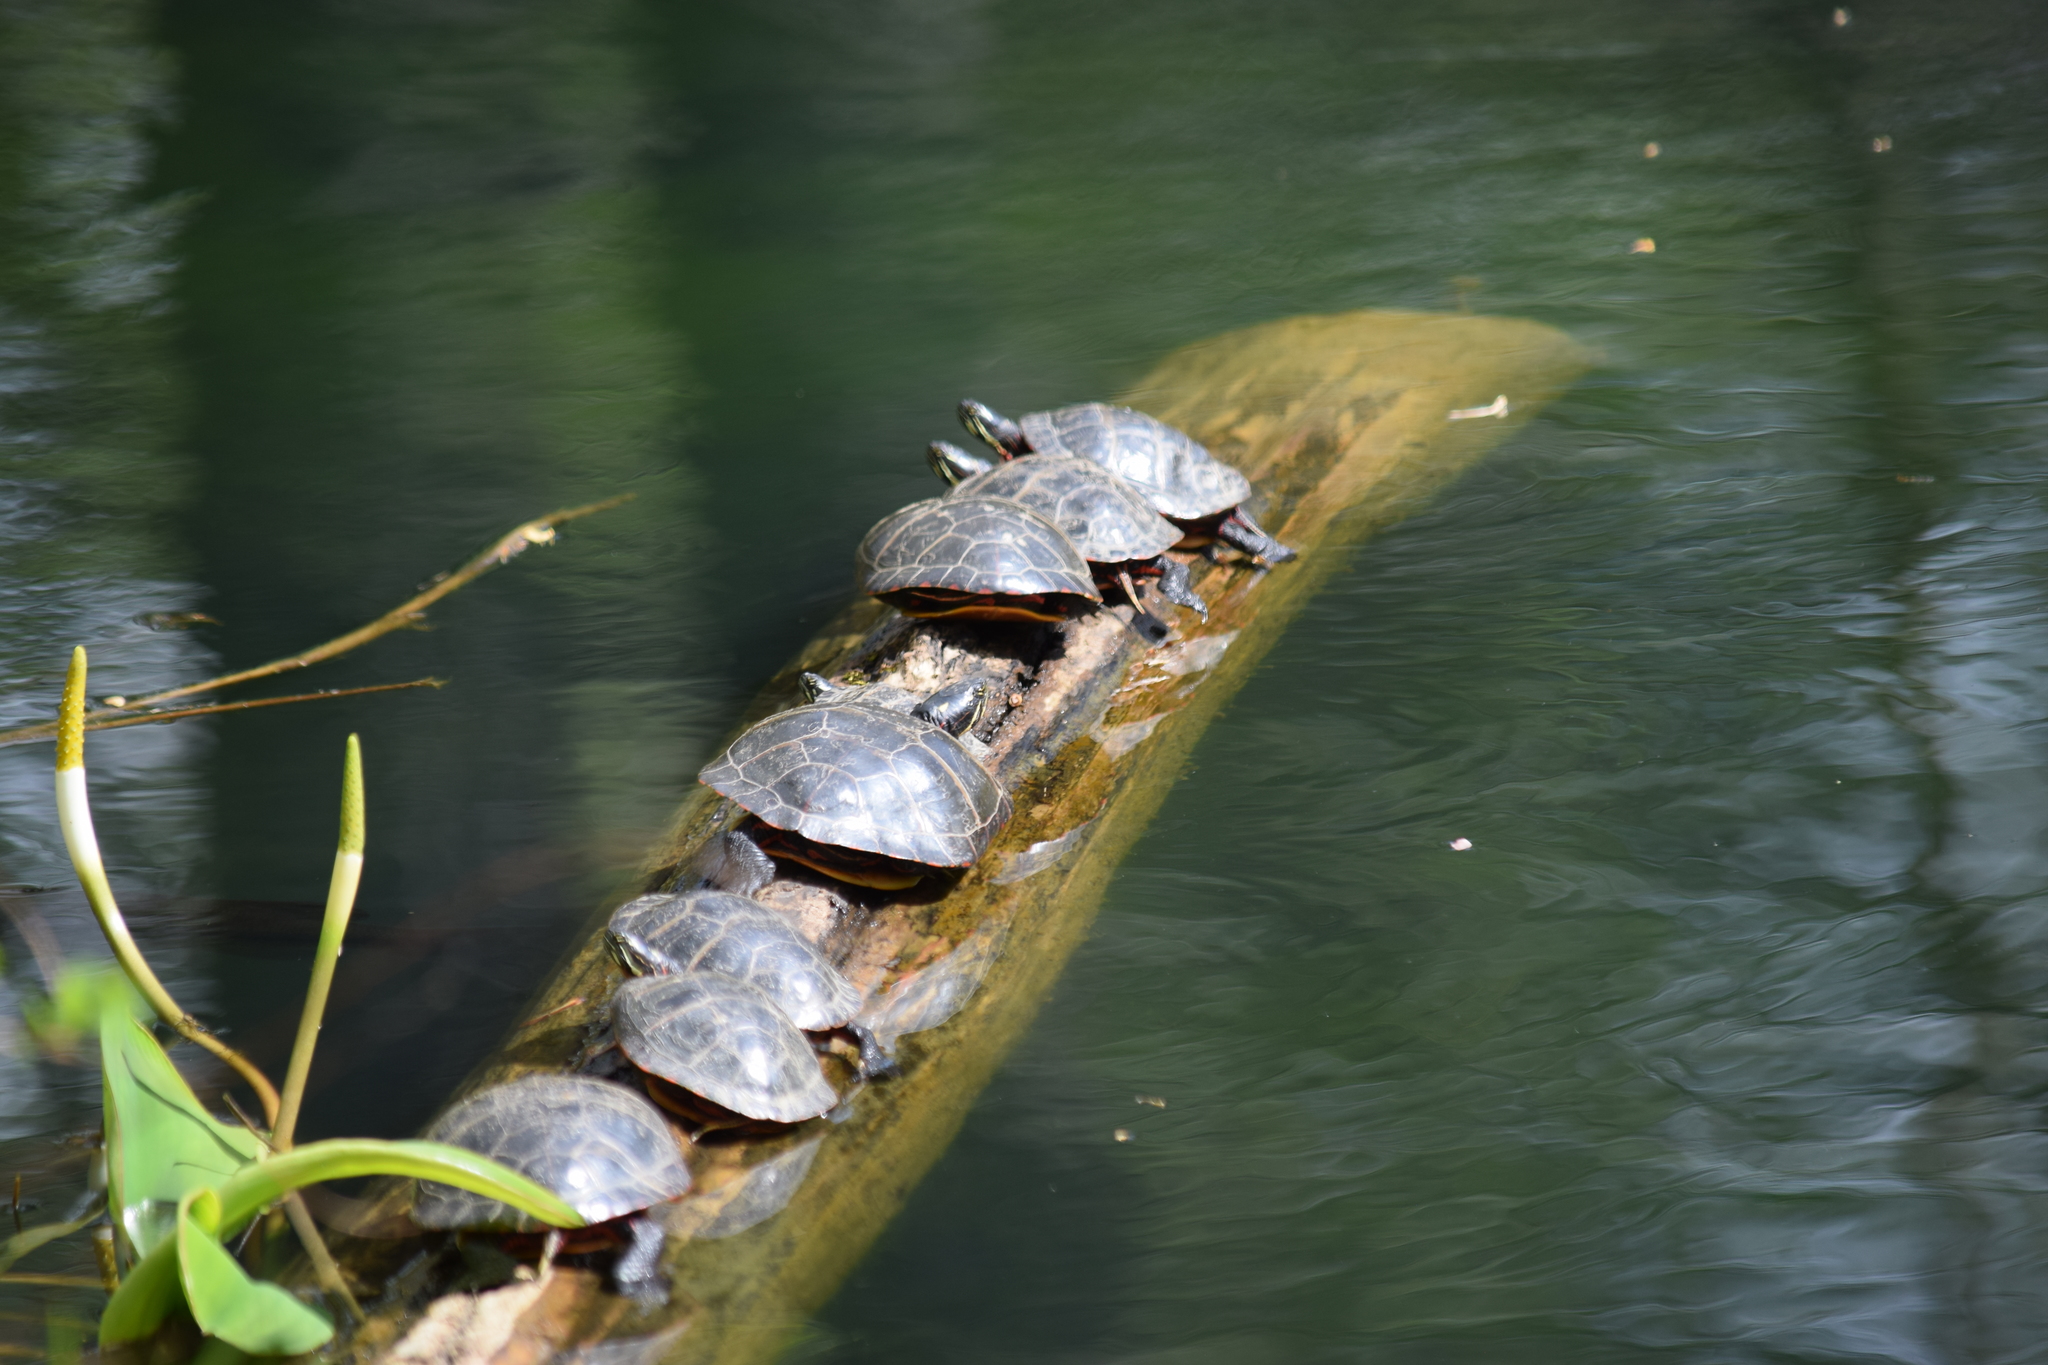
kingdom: Animalia
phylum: Chordata
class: Testudines
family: Emydidae
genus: Chrysemys
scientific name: Chrysemys picta
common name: Painted turtle
